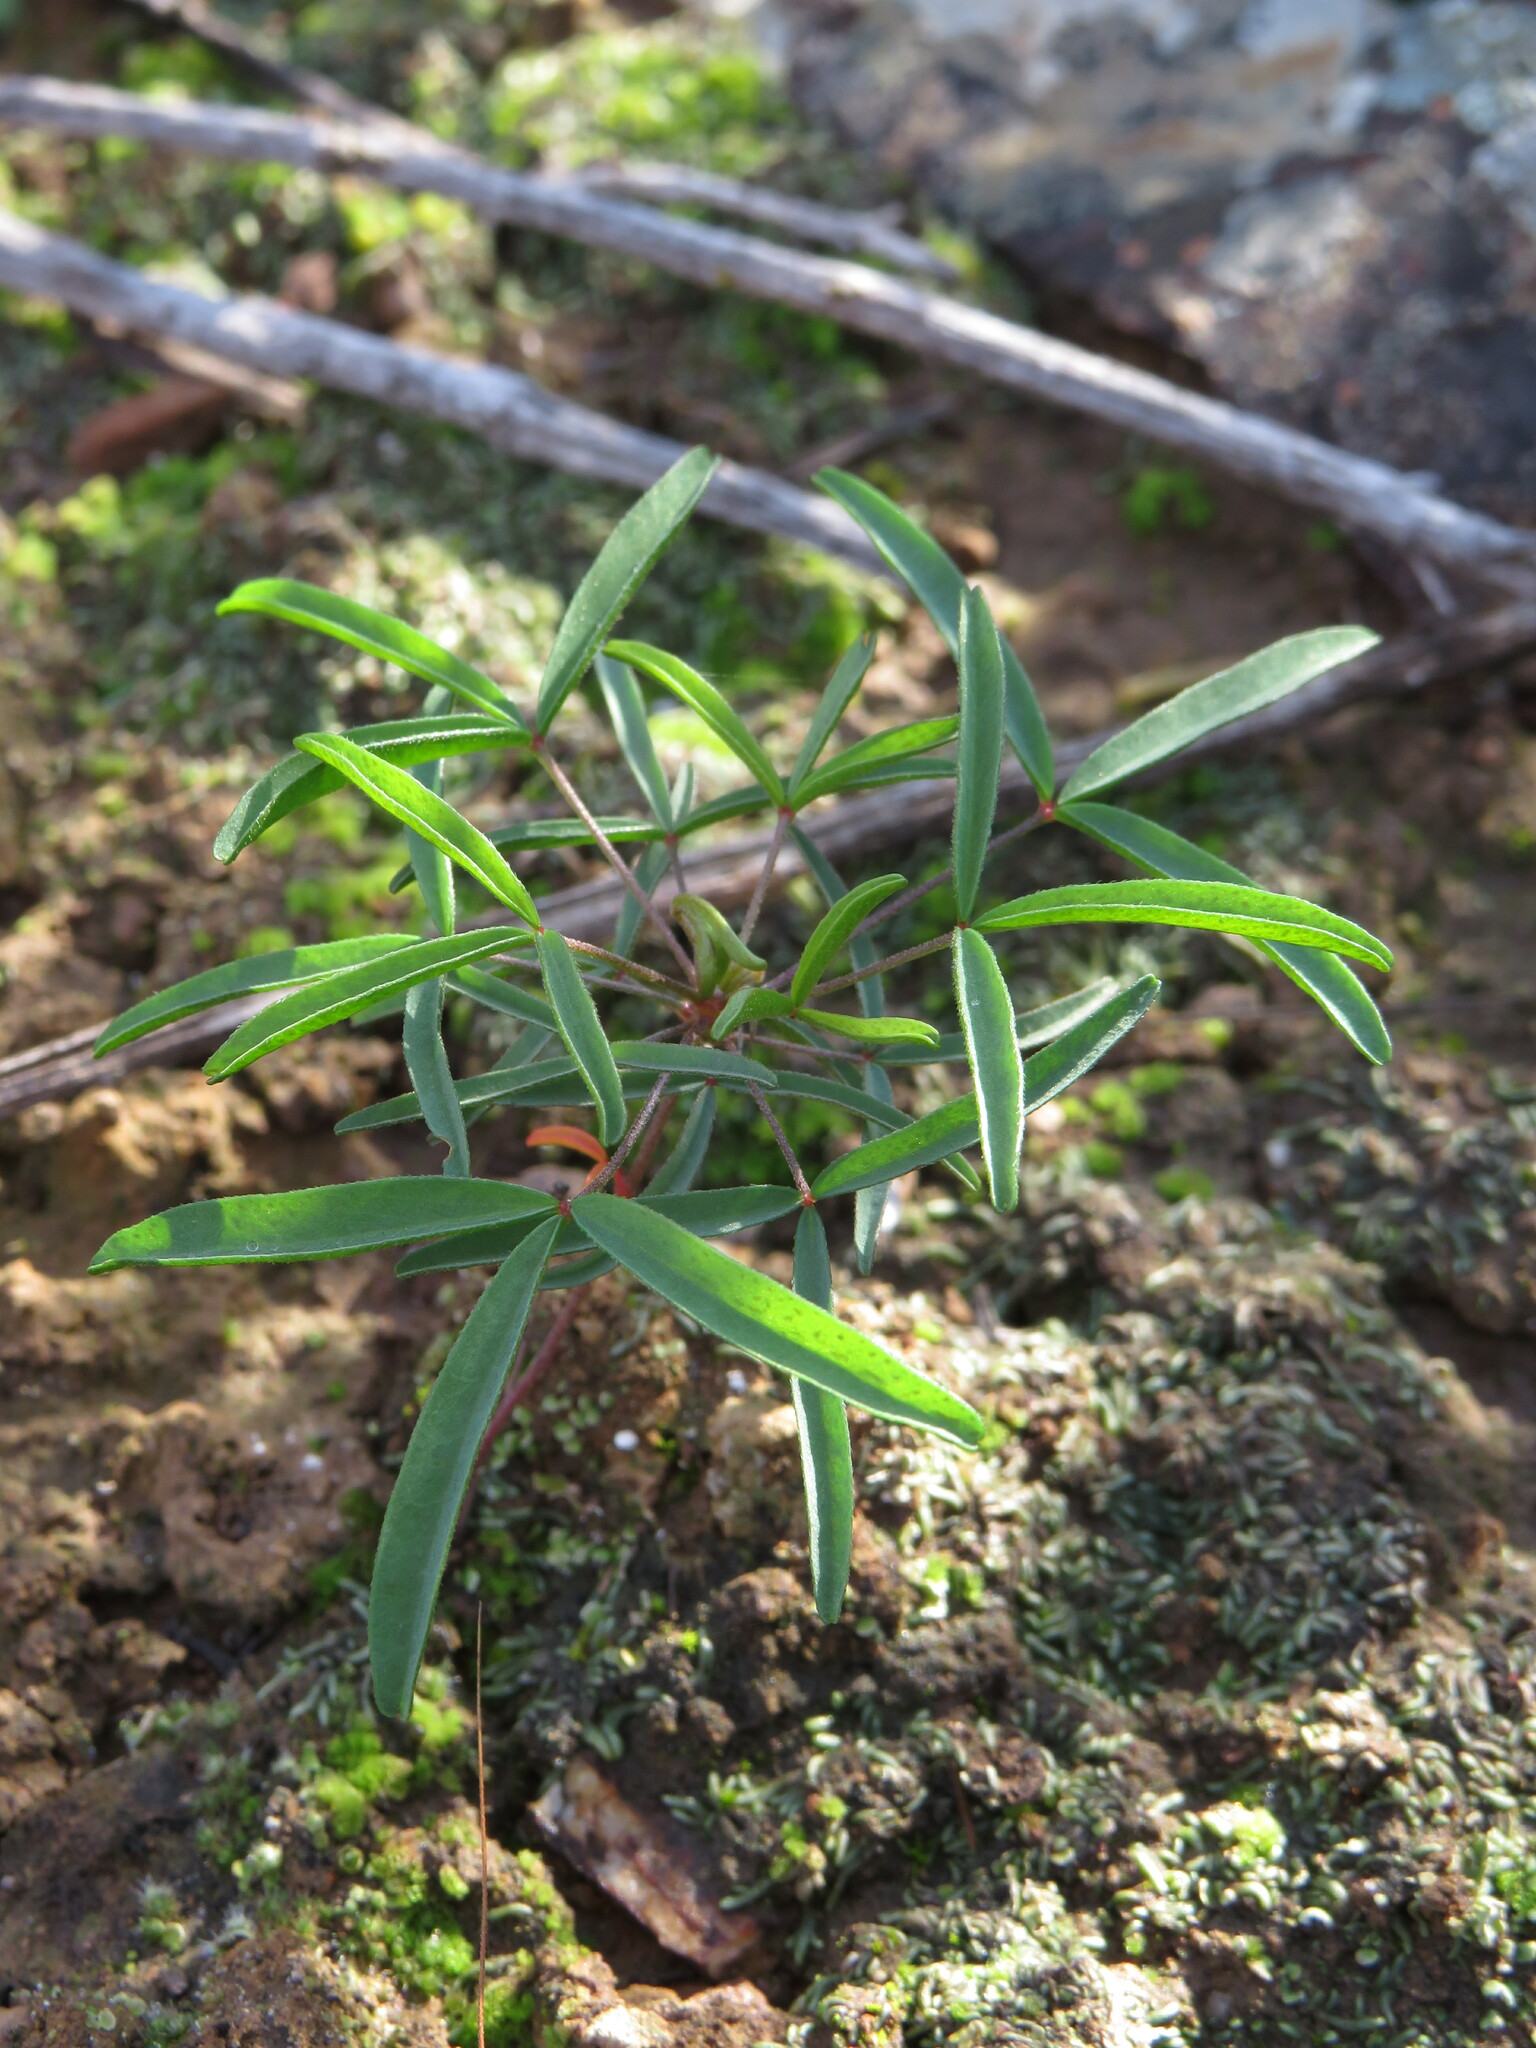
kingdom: Plantae
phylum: Tracheophyta
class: Magnoliopsida
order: Oxalidales
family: Oxalidaceae
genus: Oxalis
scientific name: Oxalis ciliaris
